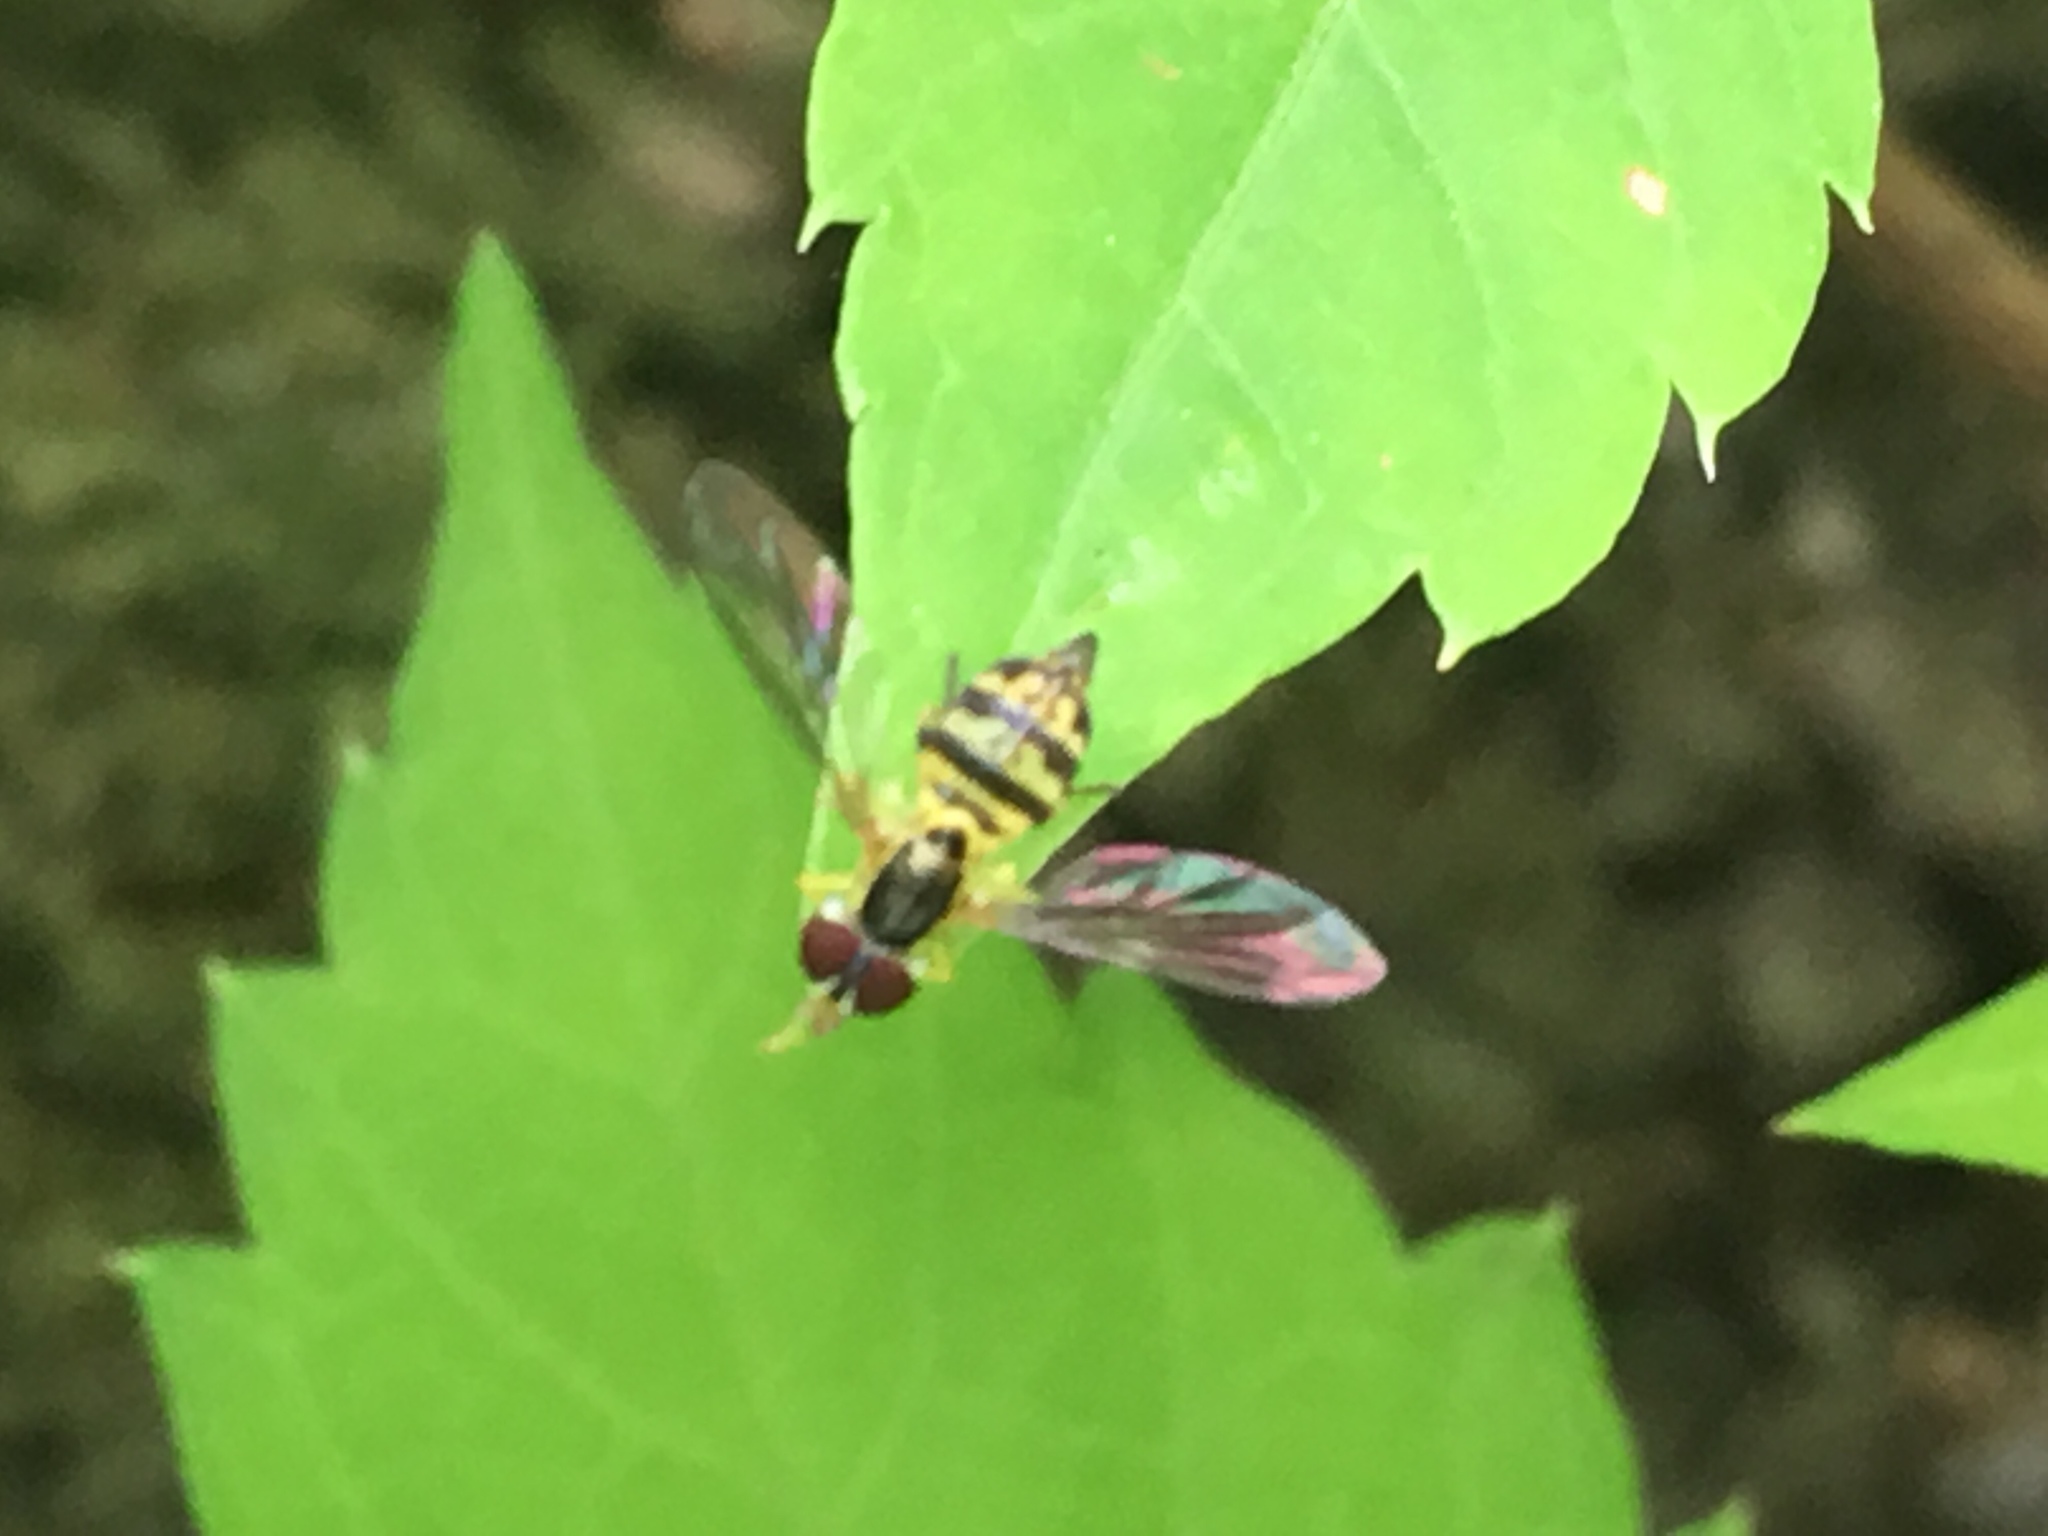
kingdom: Animalia
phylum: Arthropoda
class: Insecta
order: Diptera
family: Syrphidae
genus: Toxomerus
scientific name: Toxomerus geminatus
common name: Eastern calligrapher
